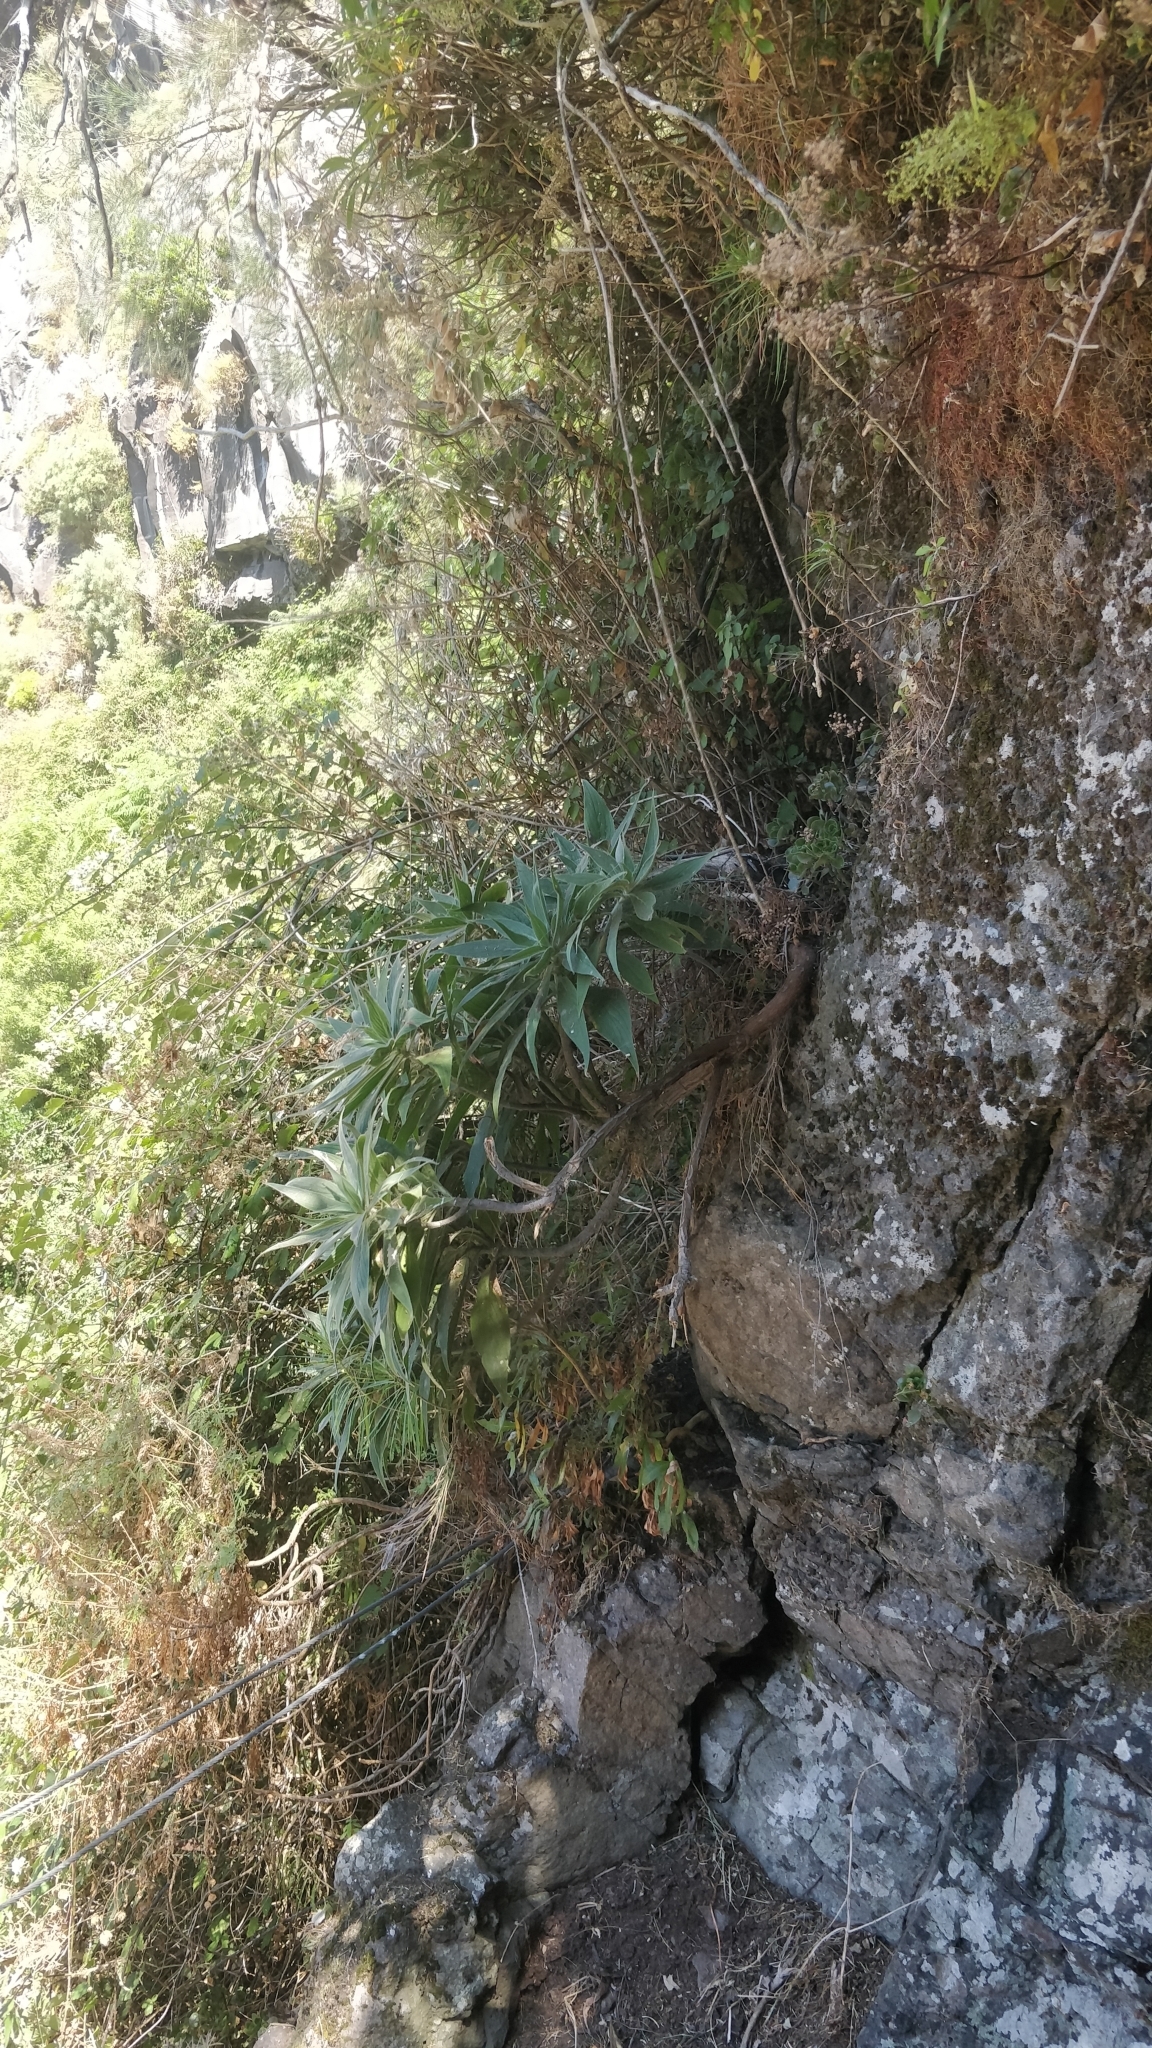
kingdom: Plantae
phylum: Tracheophyta
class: Magnoliopsida
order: Boraginales
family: Boraginaceae
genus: Echium
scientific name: Echium candicans
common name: Pride of madeira
